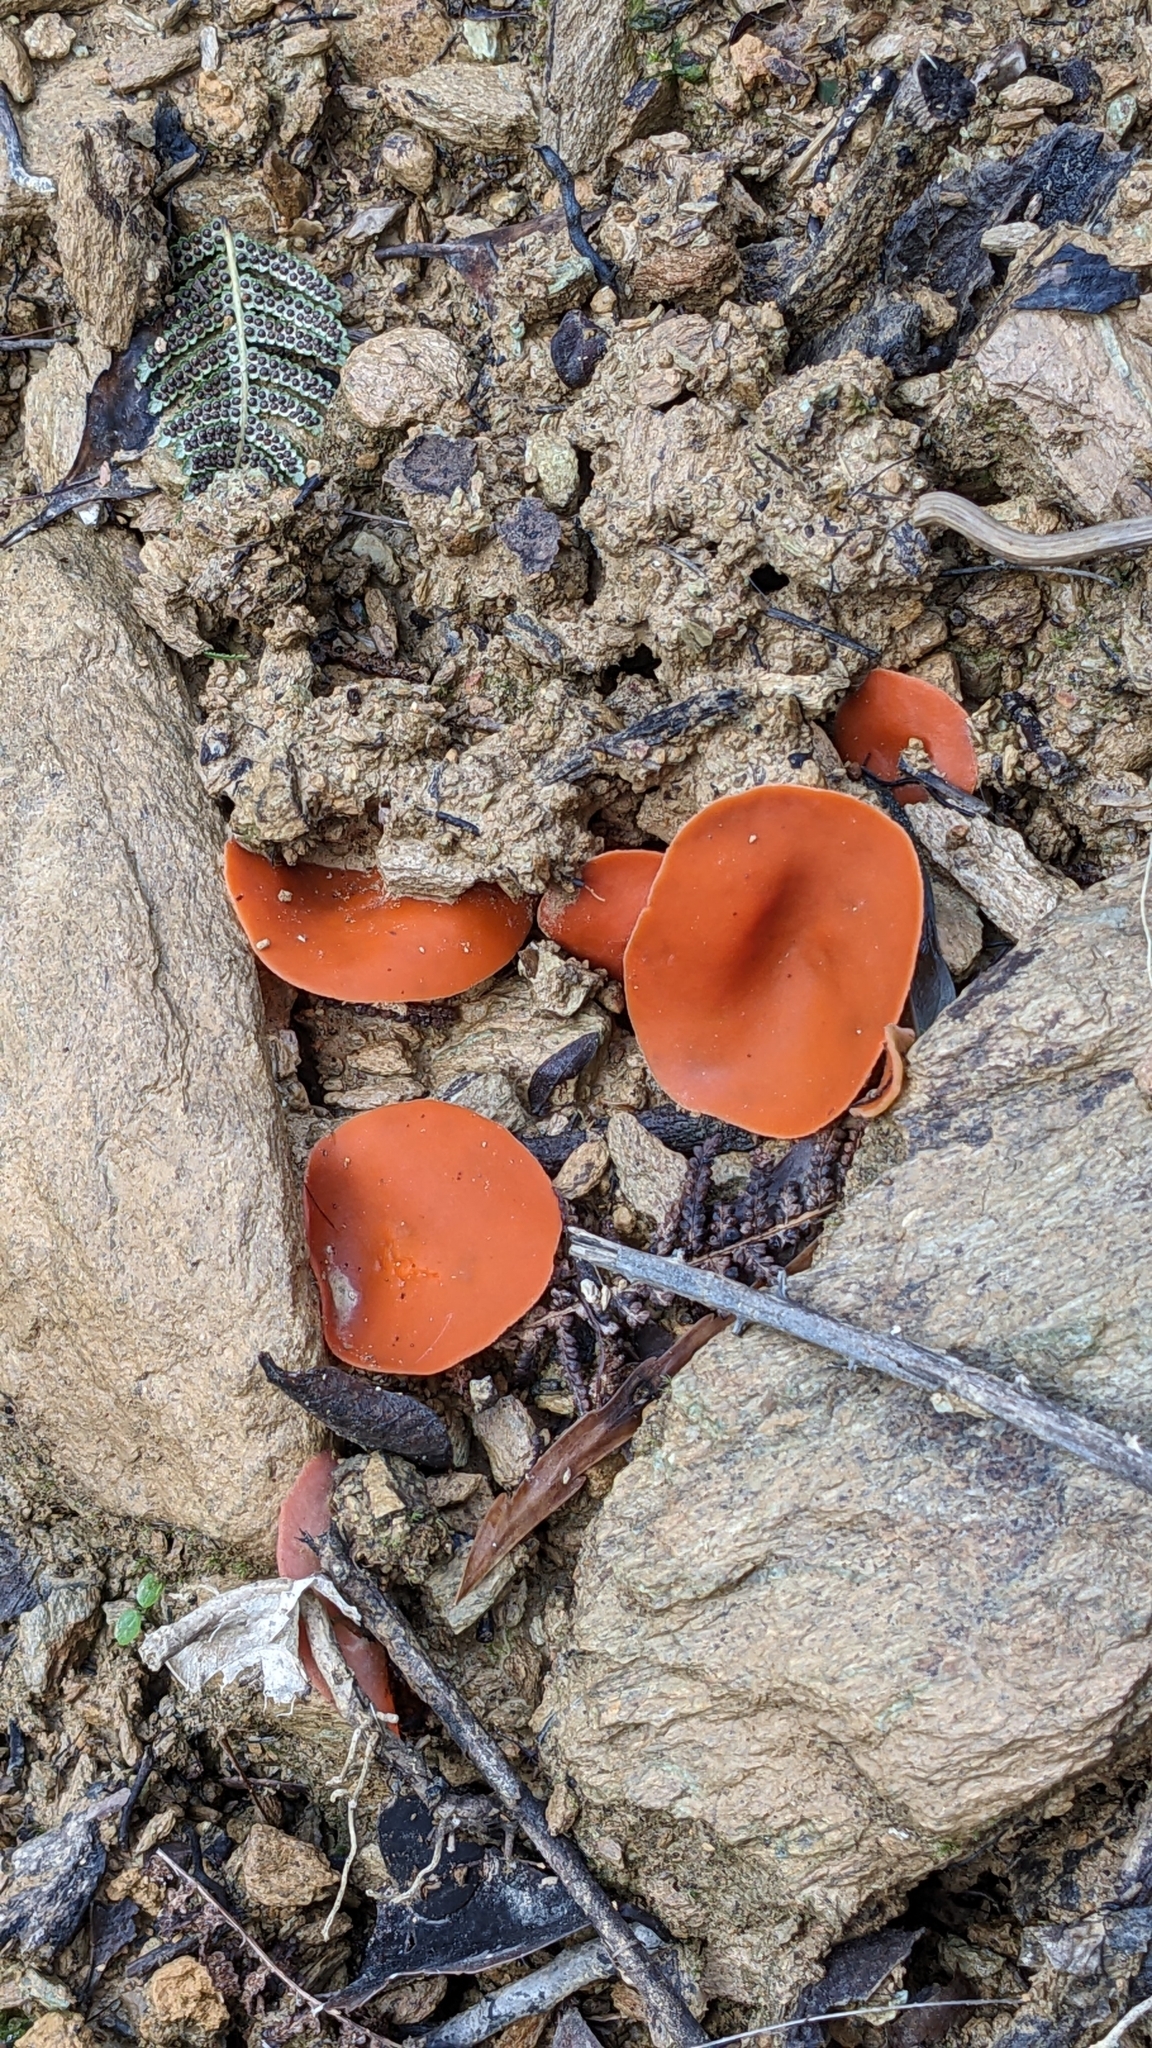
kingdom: Fungi
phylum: Ascomycota
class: Pezizomycetes
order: Pezizales
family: Pyronemataceae
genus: Aleuria
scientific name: Aleuria aurantia
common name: Orange peel fungus
